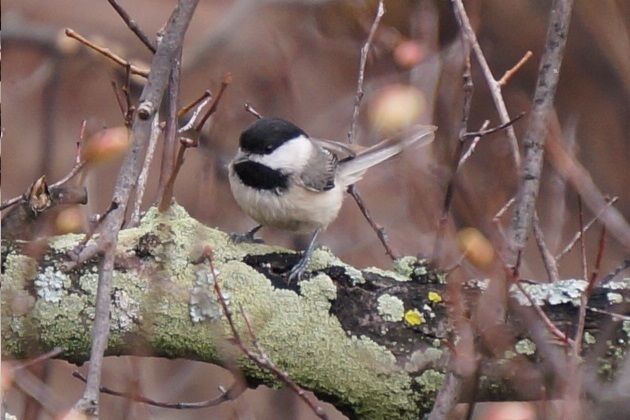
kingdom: Animalia
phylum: Chordata
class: Aves
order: Passeriformes
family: Paridae
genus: Poecile
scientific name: Poecile carolinensis
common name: Carolina chickadee
